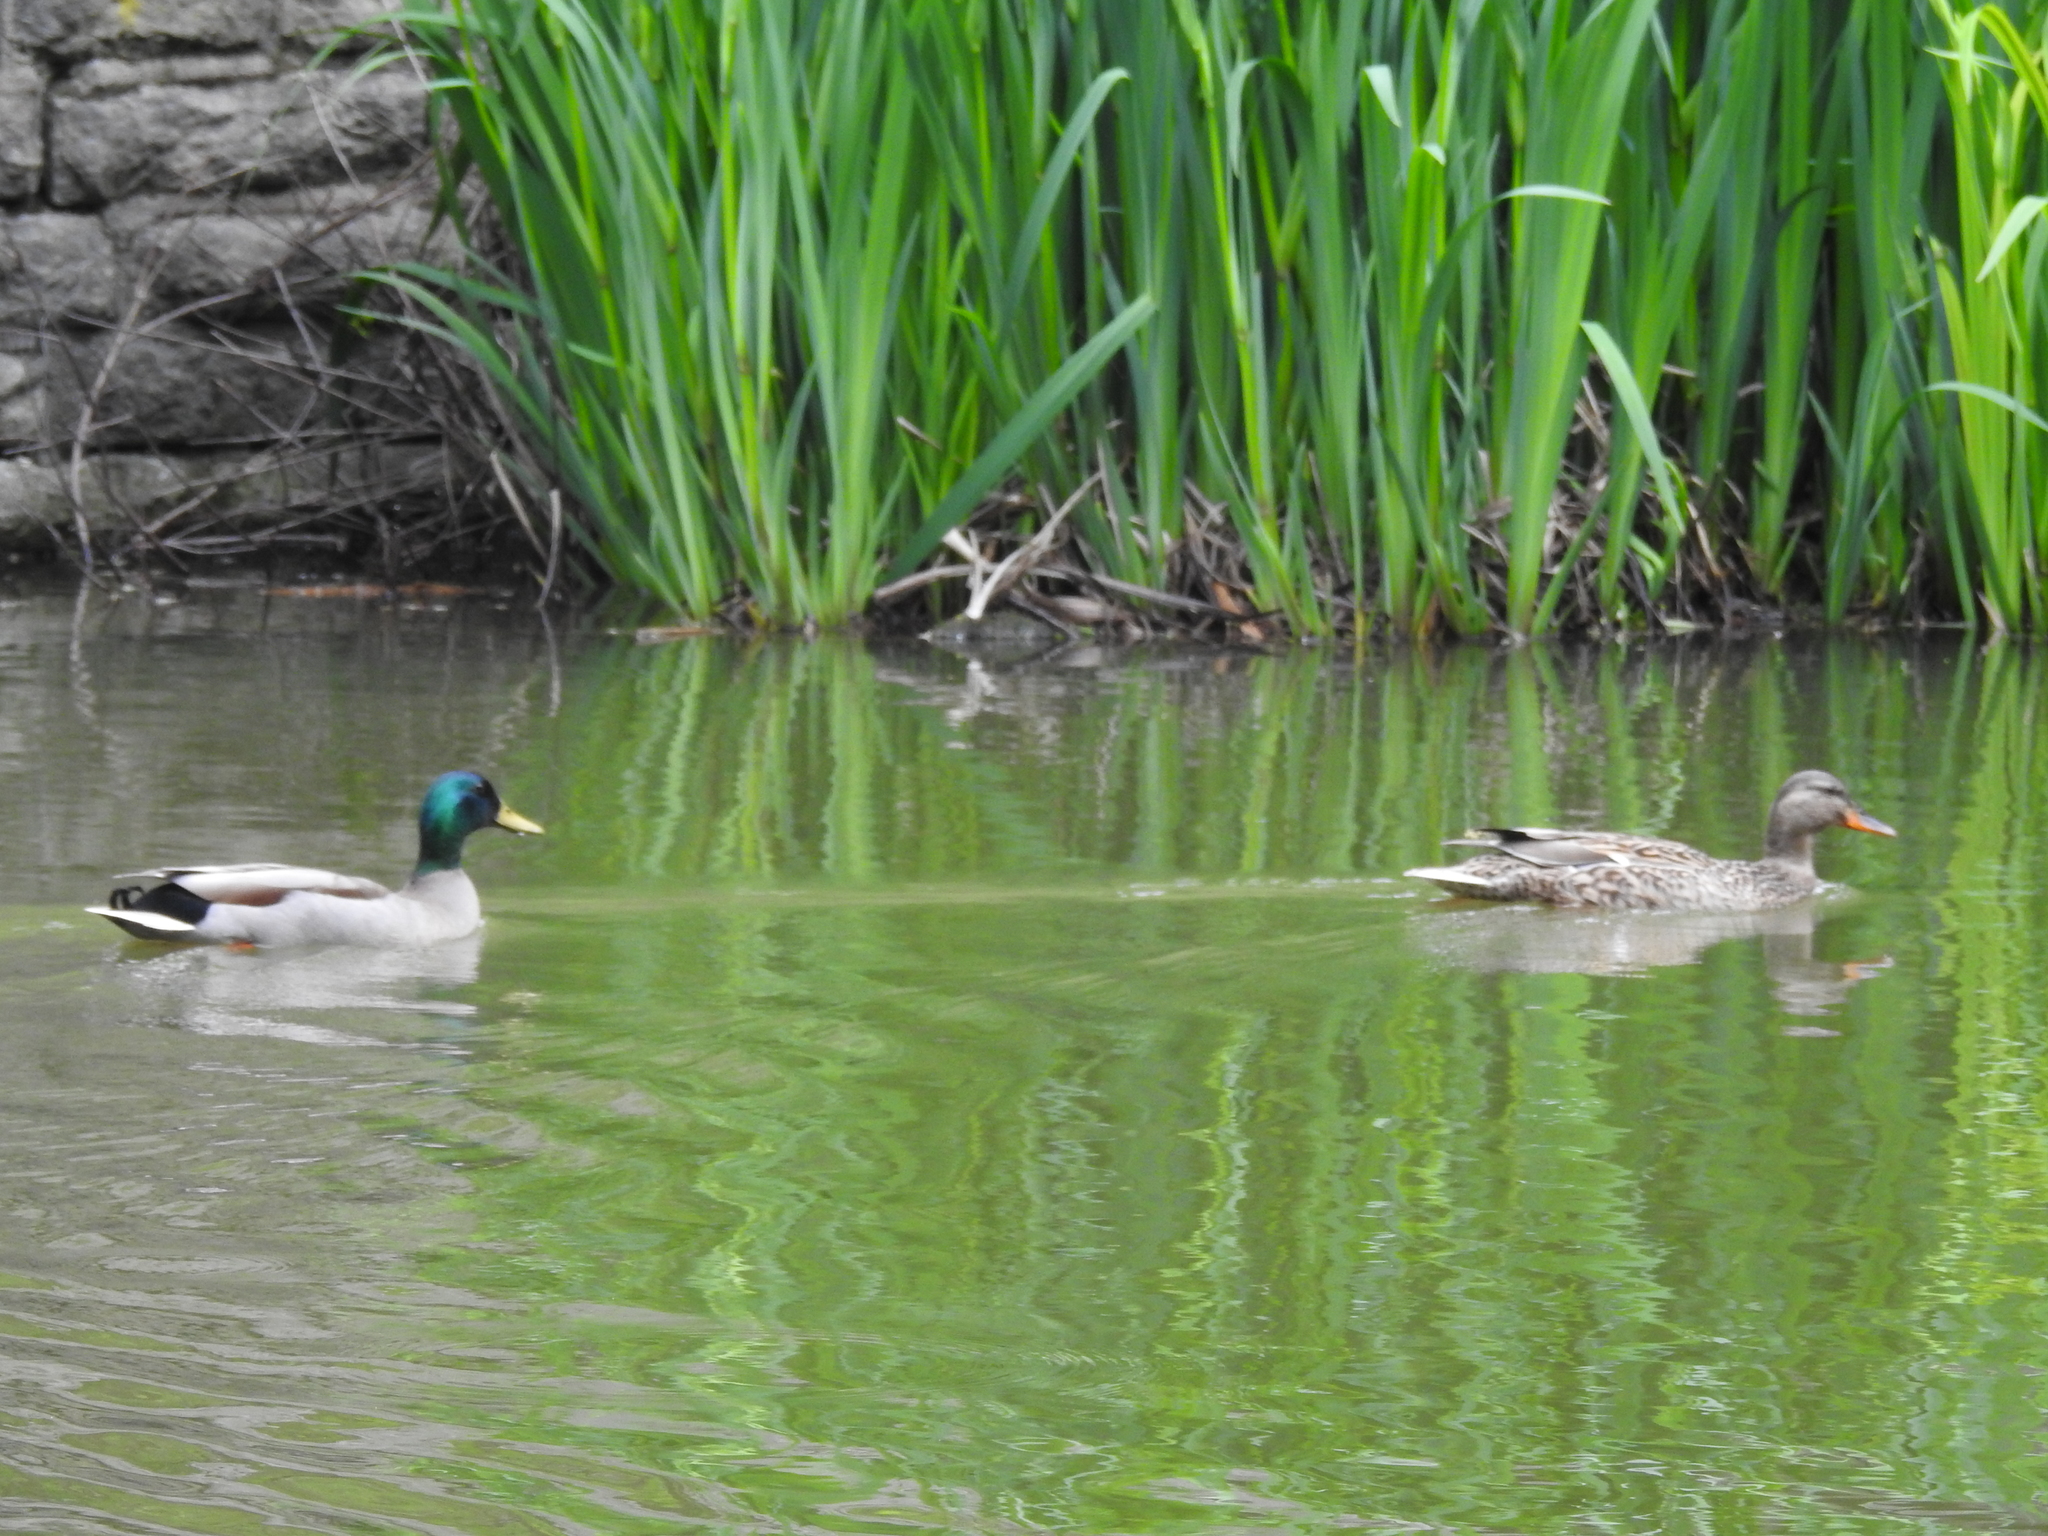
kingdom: Animalia
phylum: Chordata
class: Aves
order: Anseriformes
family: Anatidae
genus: Anas
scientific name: Anas platyrhynchos
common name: Mallard
